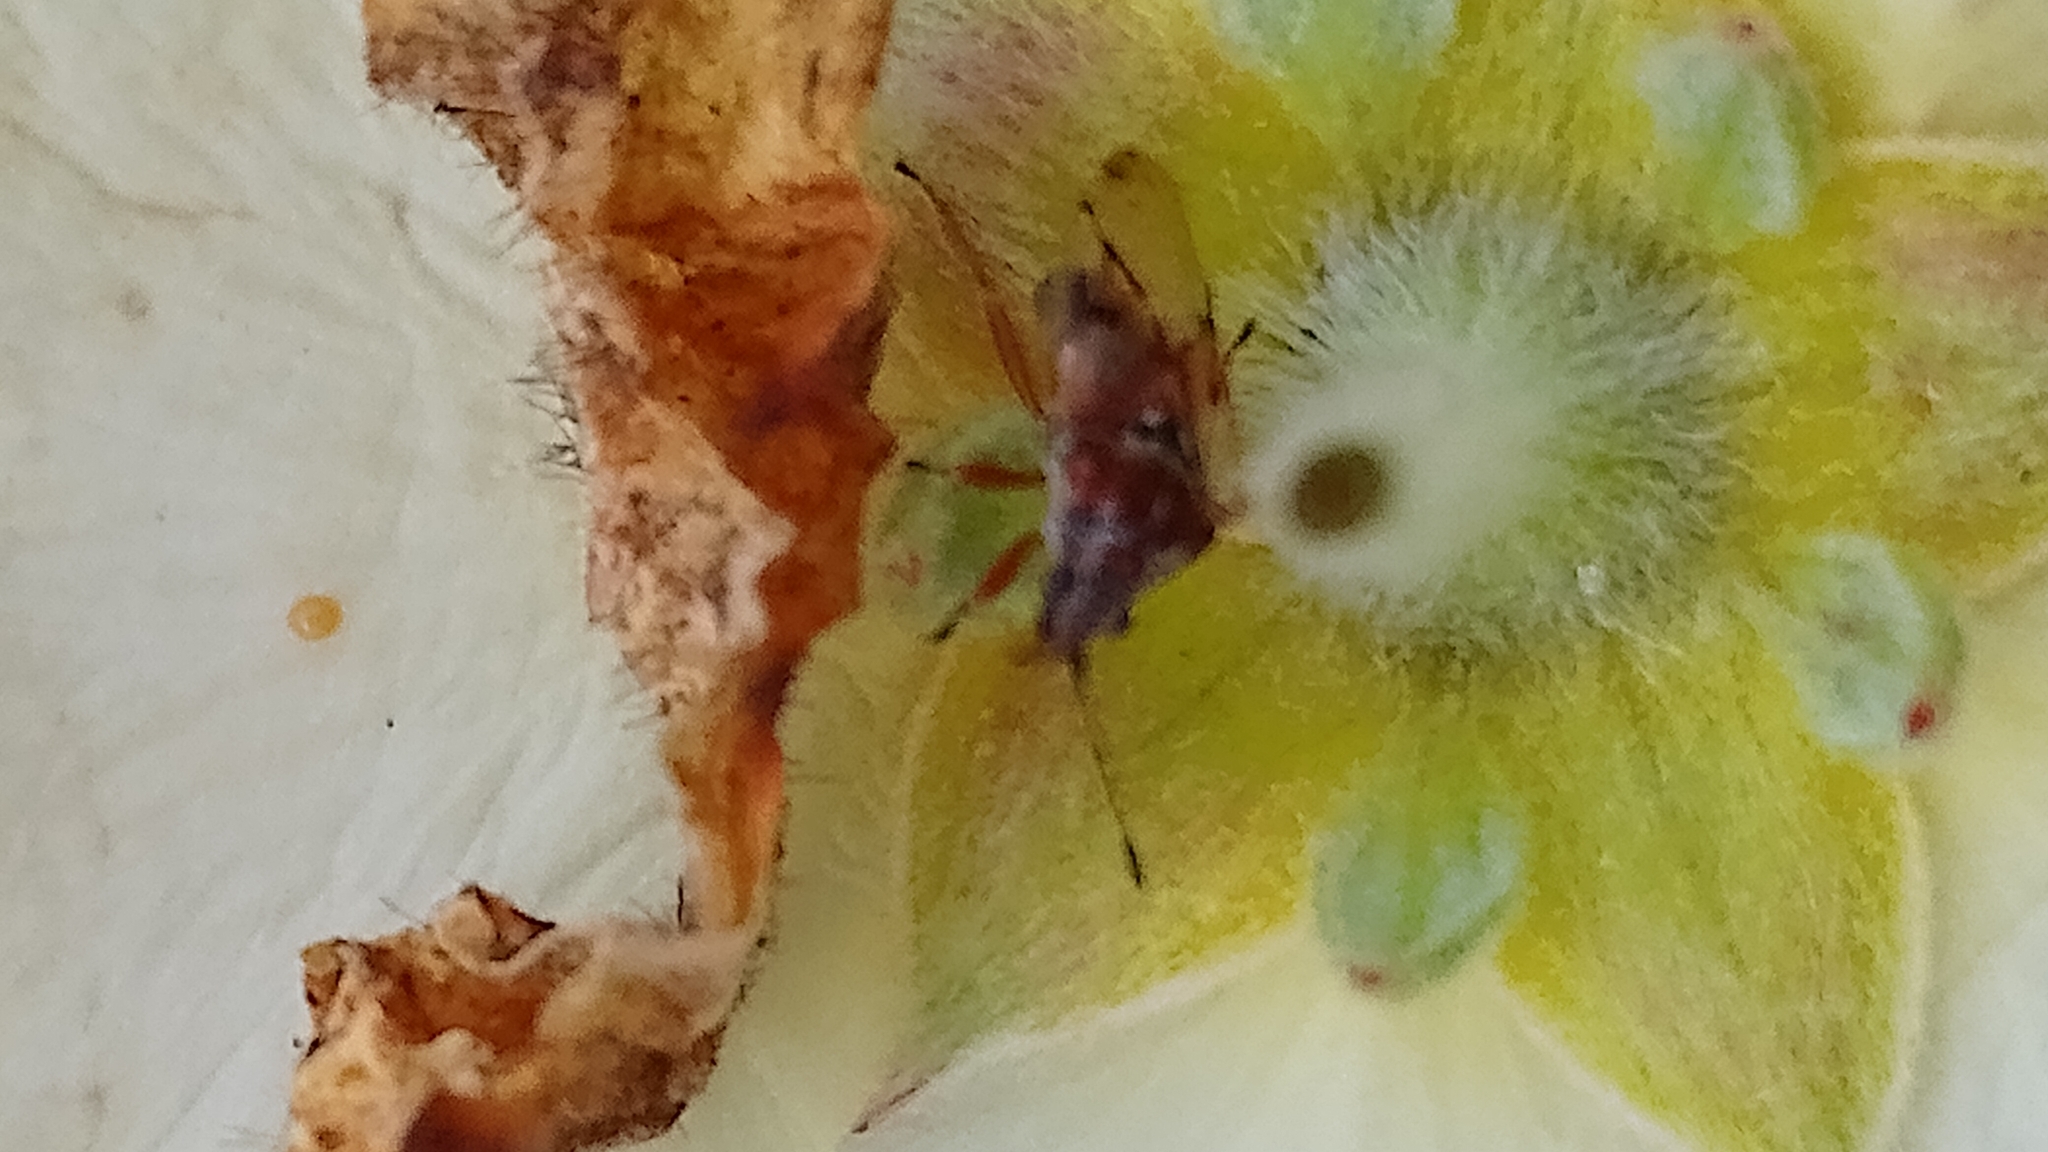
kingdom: Animalia
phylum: Arthropoda
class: Insecta
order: Hemiptera
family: Lygaeidae
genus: Kleidocerys
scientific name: Kleidocerys resedae
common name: Birch catkin bug
